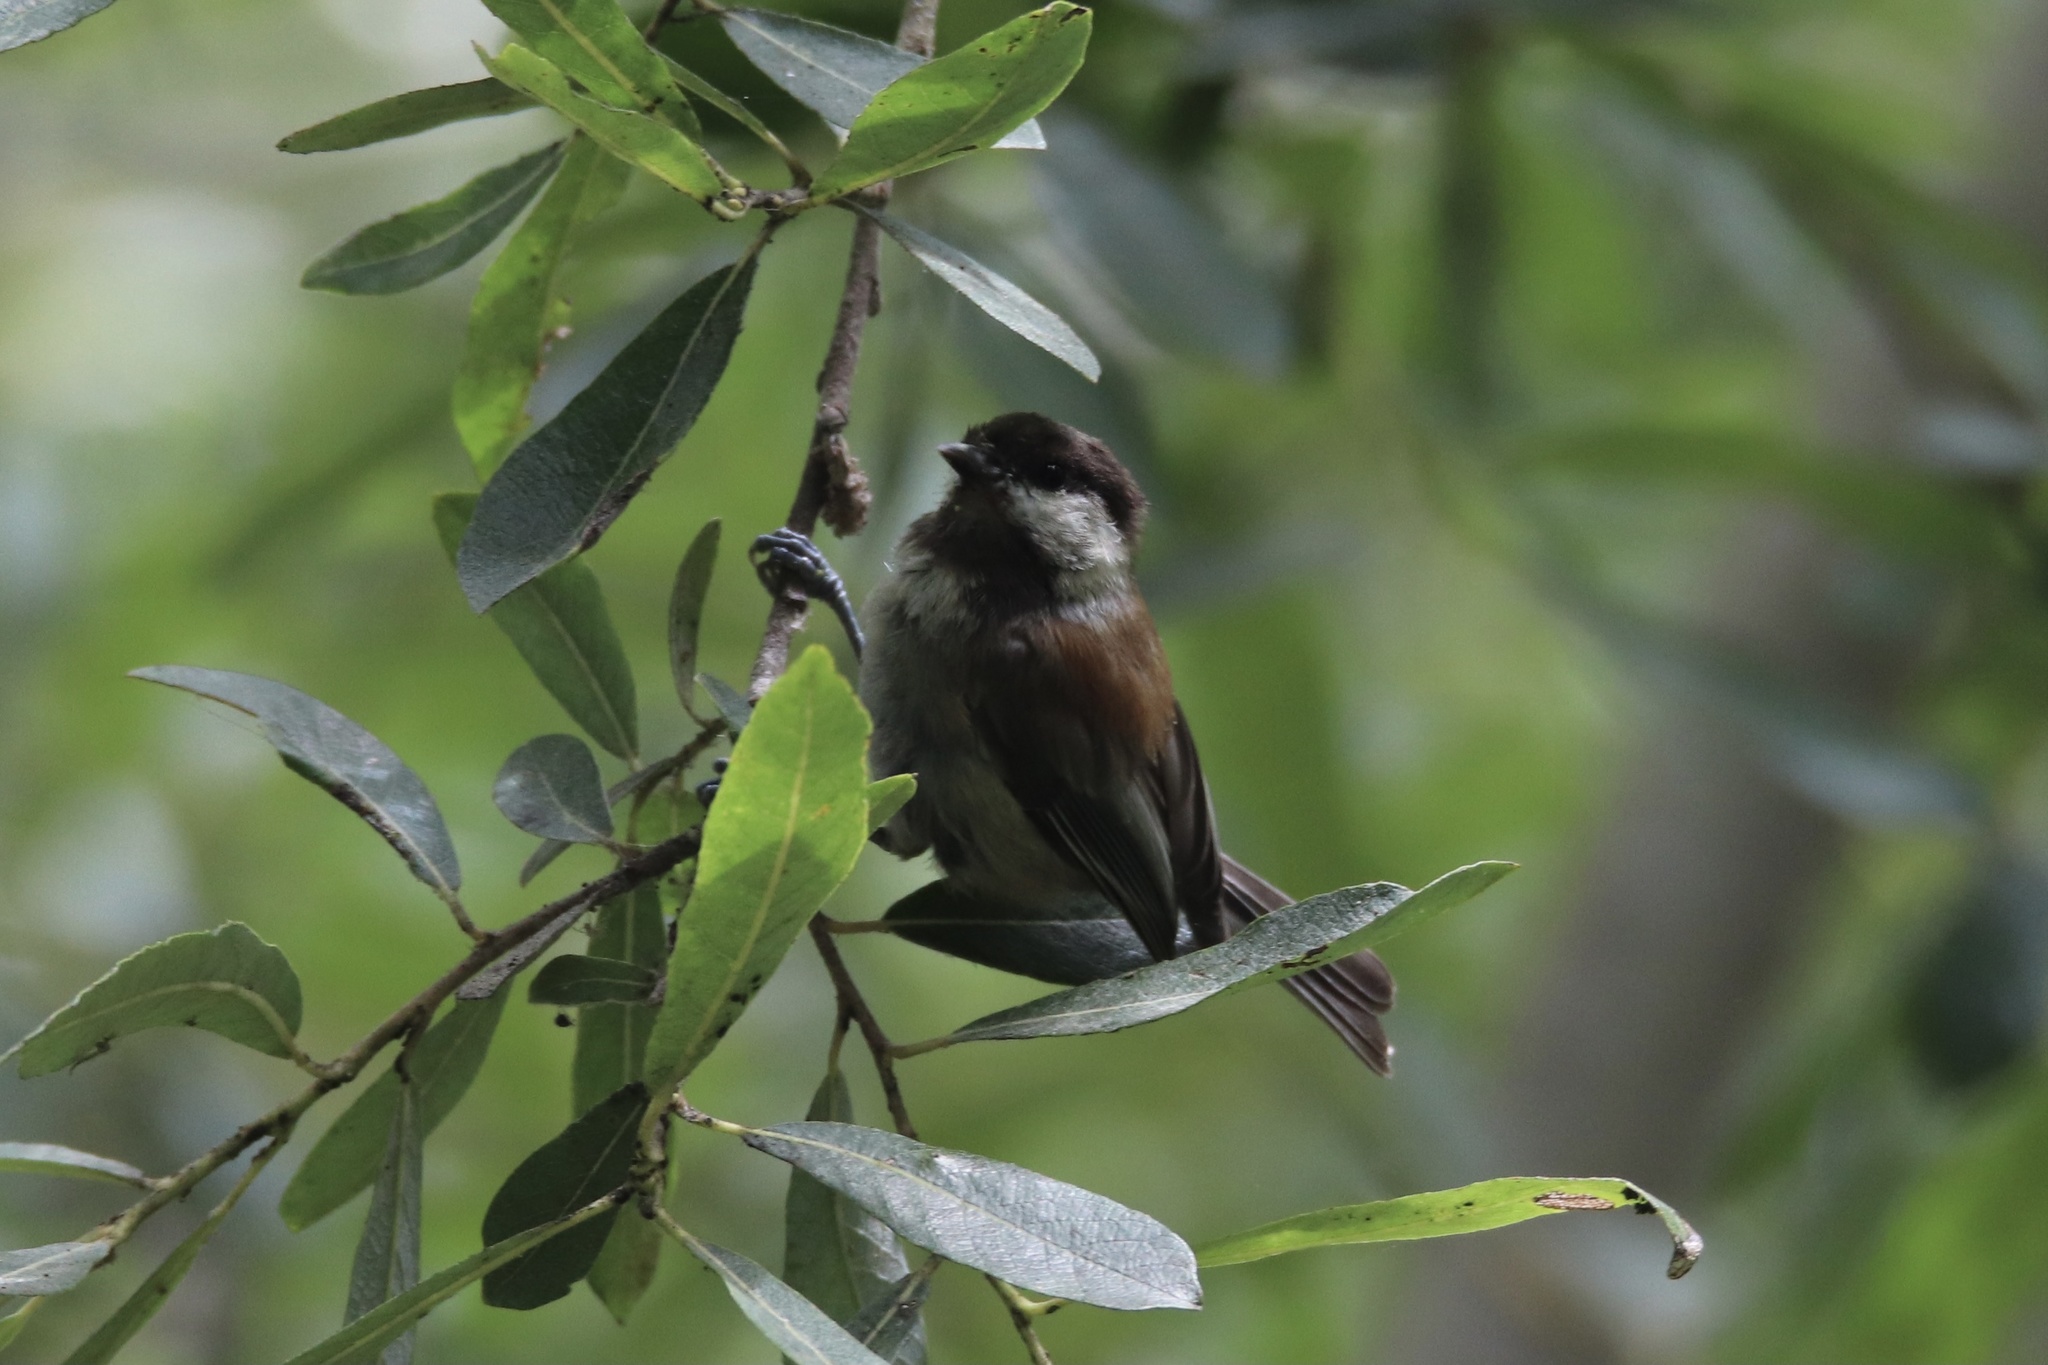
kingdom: Animalia
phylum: Chordata
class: Aves
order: Passeriformes
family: Paridae
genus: Poecile
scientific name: Poecile rufescens
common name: Chestnut-backed chickadee
